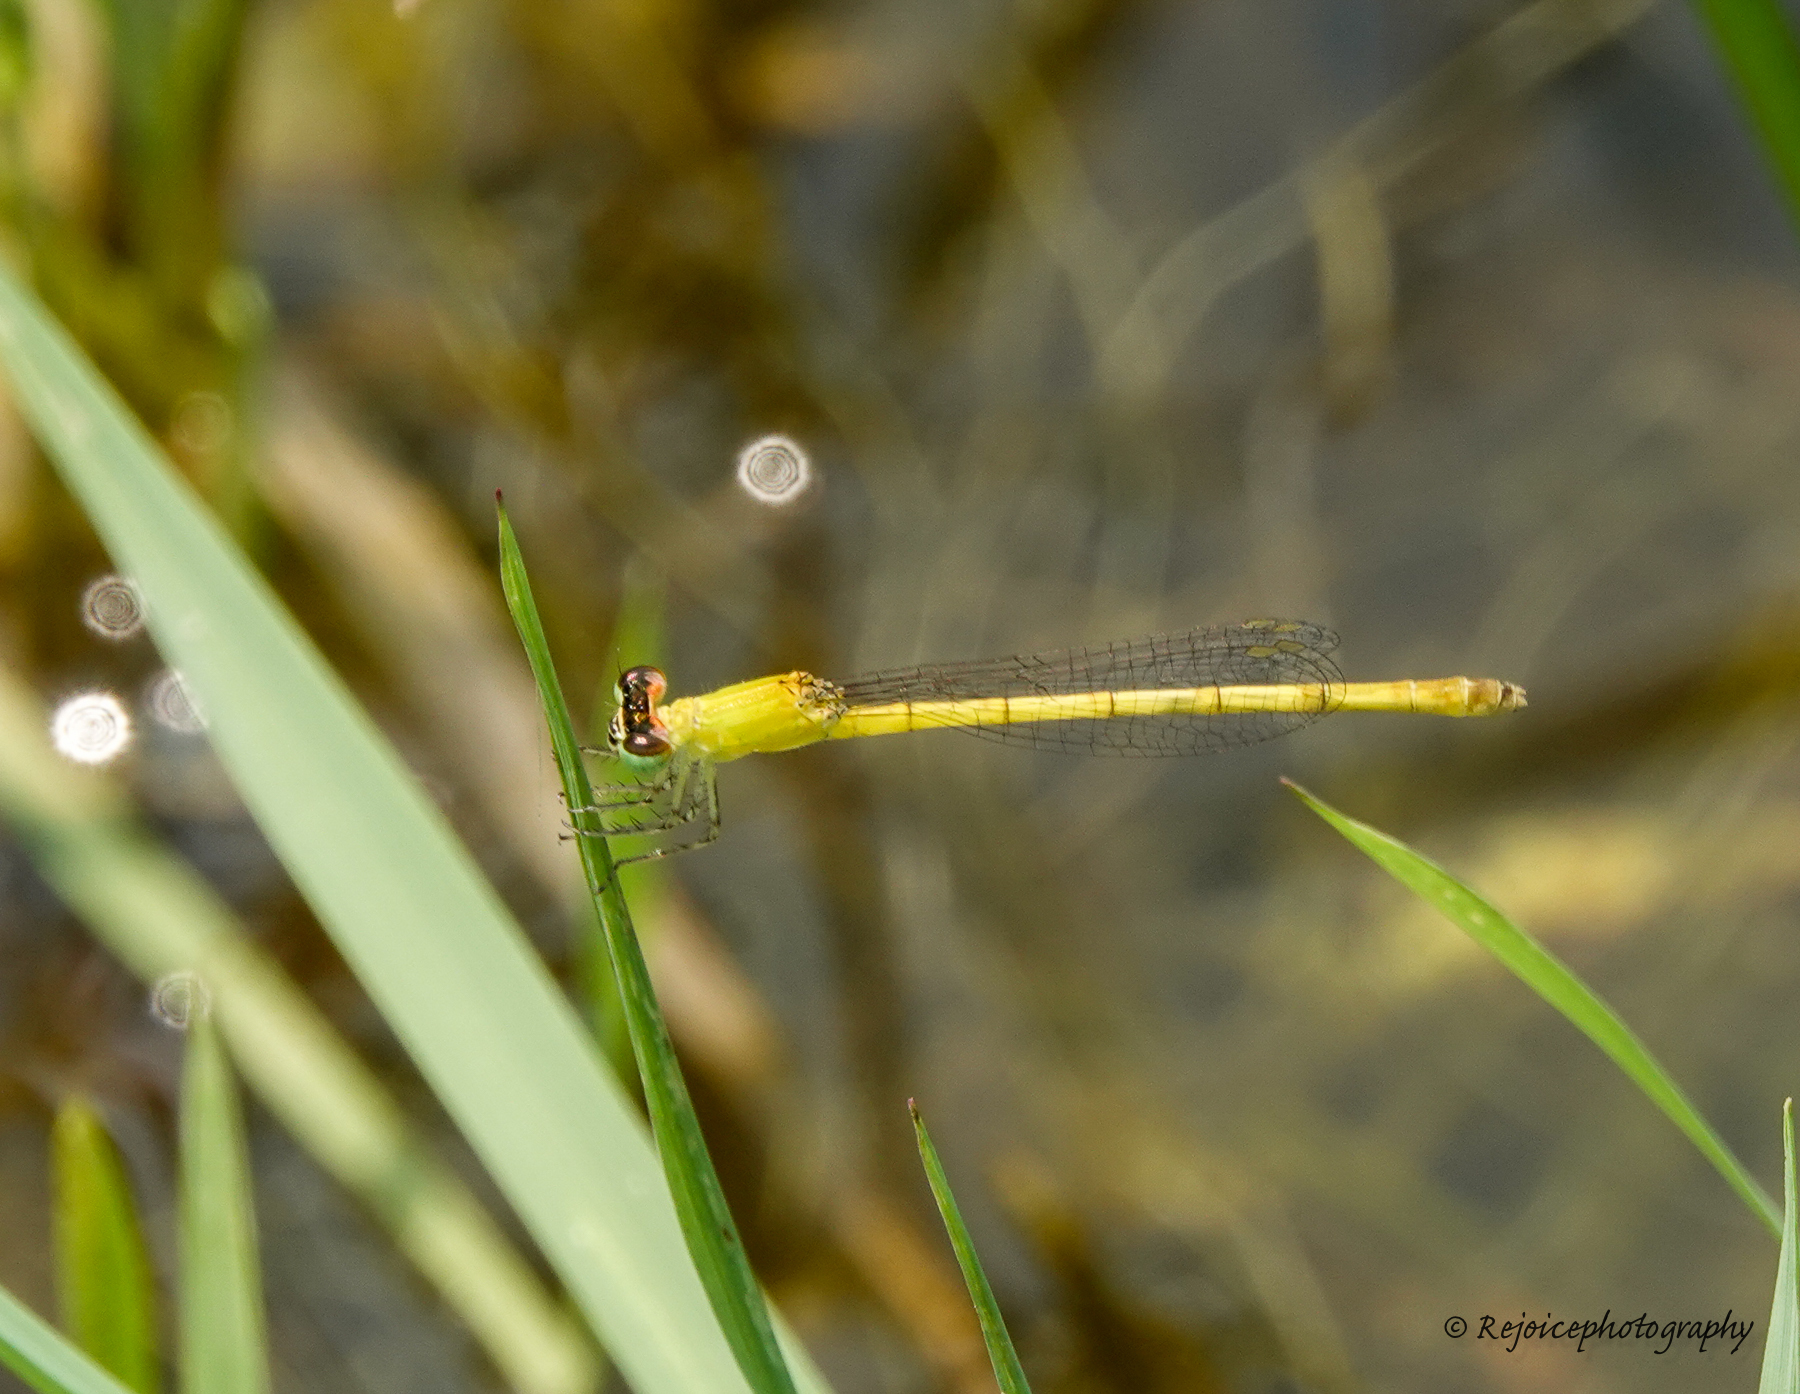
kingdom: Animalia
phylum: Arthropoda
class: Insecta
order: Odonata
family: Coenagrionidae
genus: Agriocnemis
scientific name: Agriocnemis kalinga
